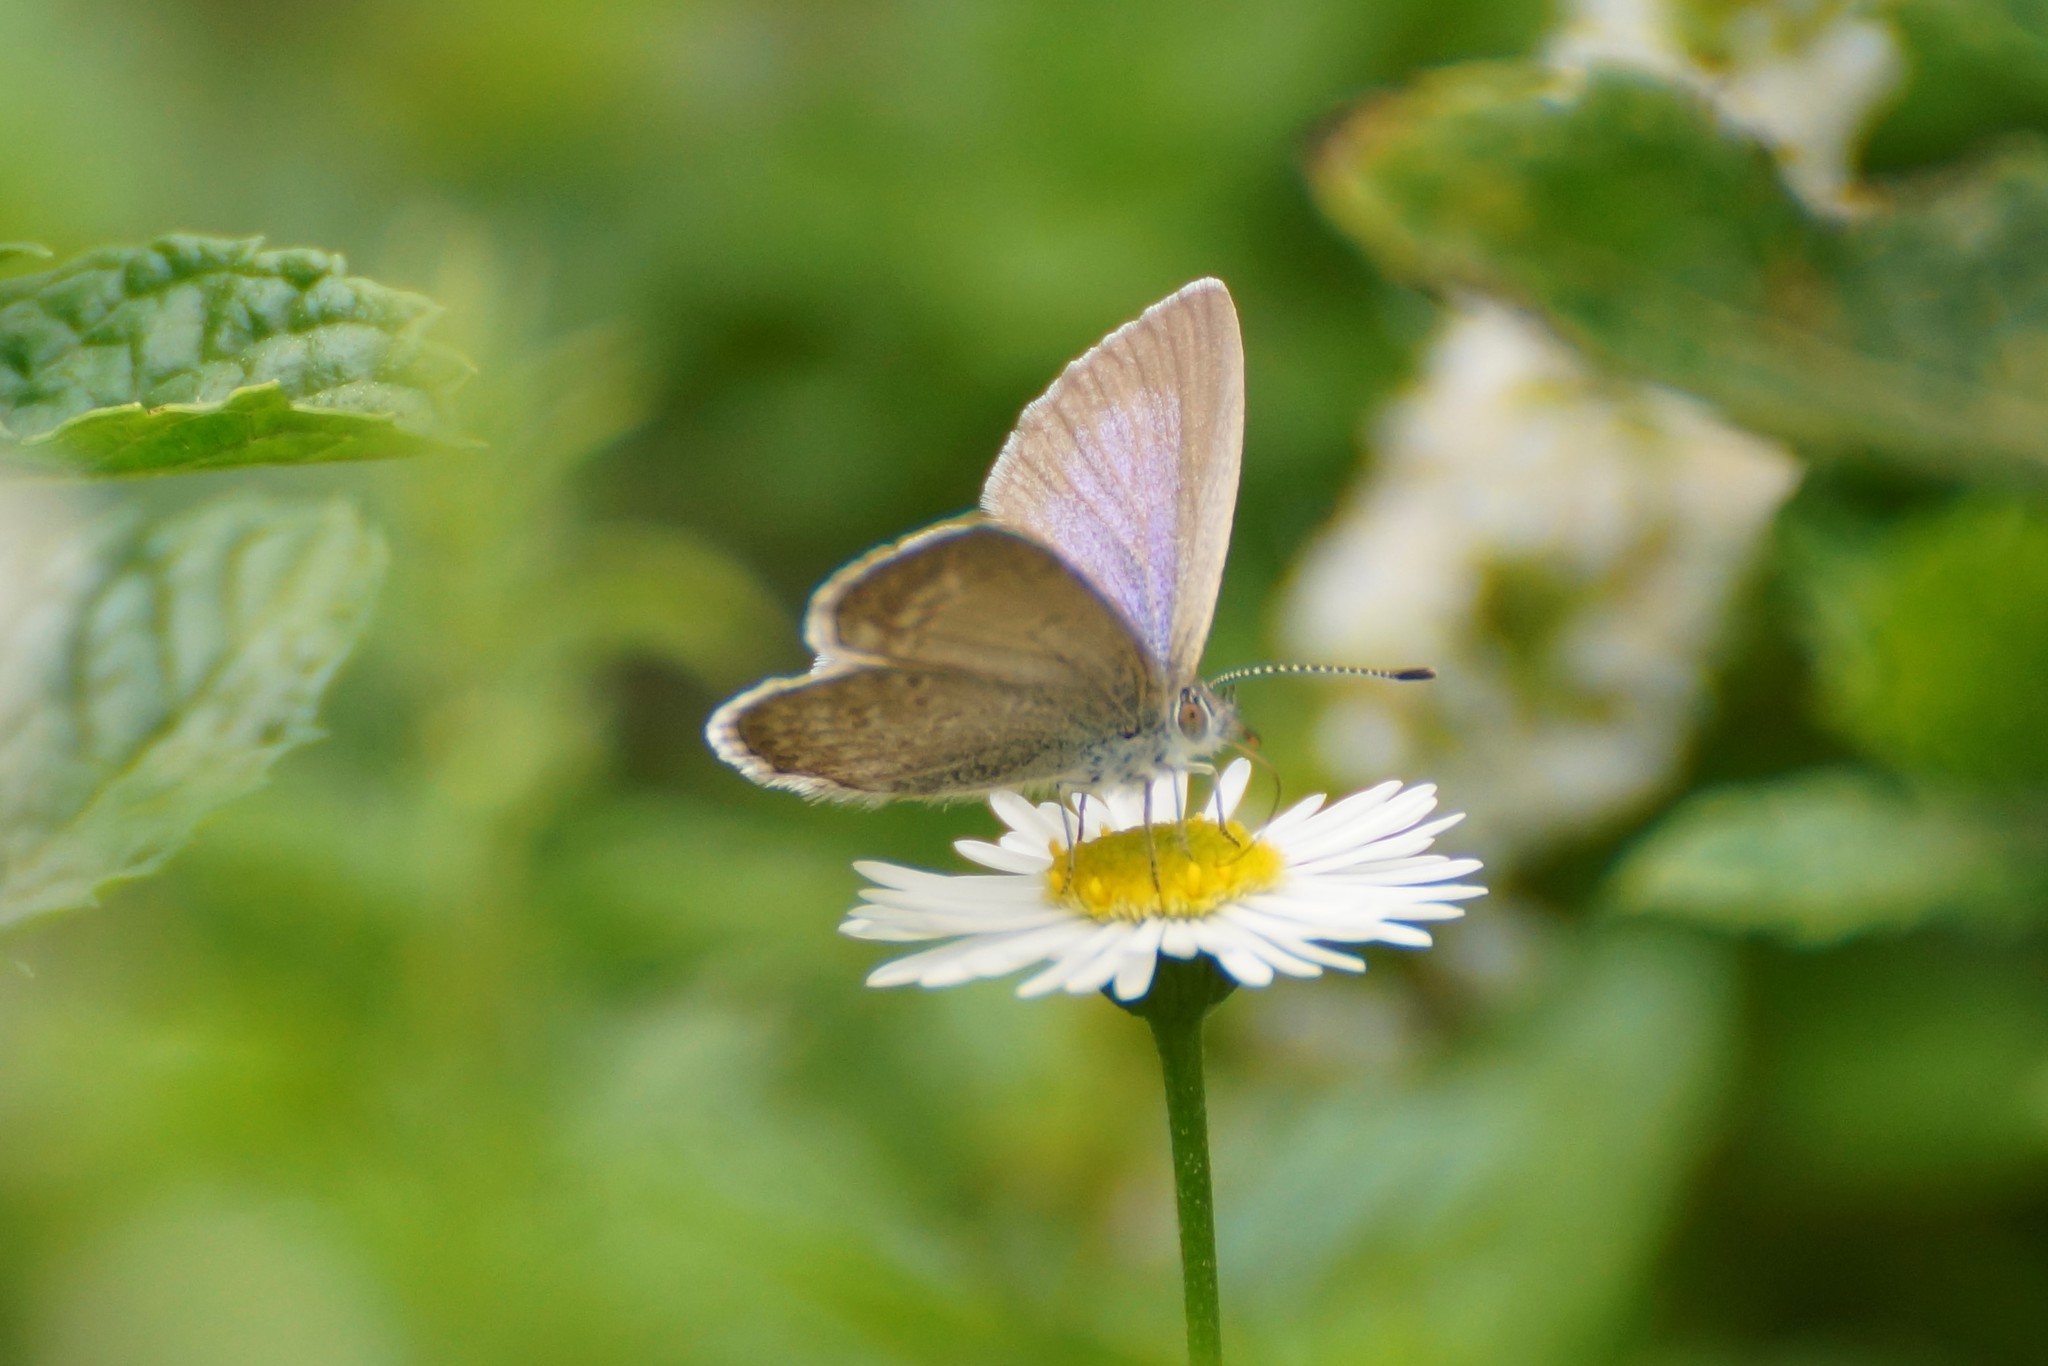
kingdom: Animalia
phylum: Arthropoda
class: Insecta
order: Lepidoptera
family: Lycaenidae
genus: Zizina
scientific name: Zizina labradus
